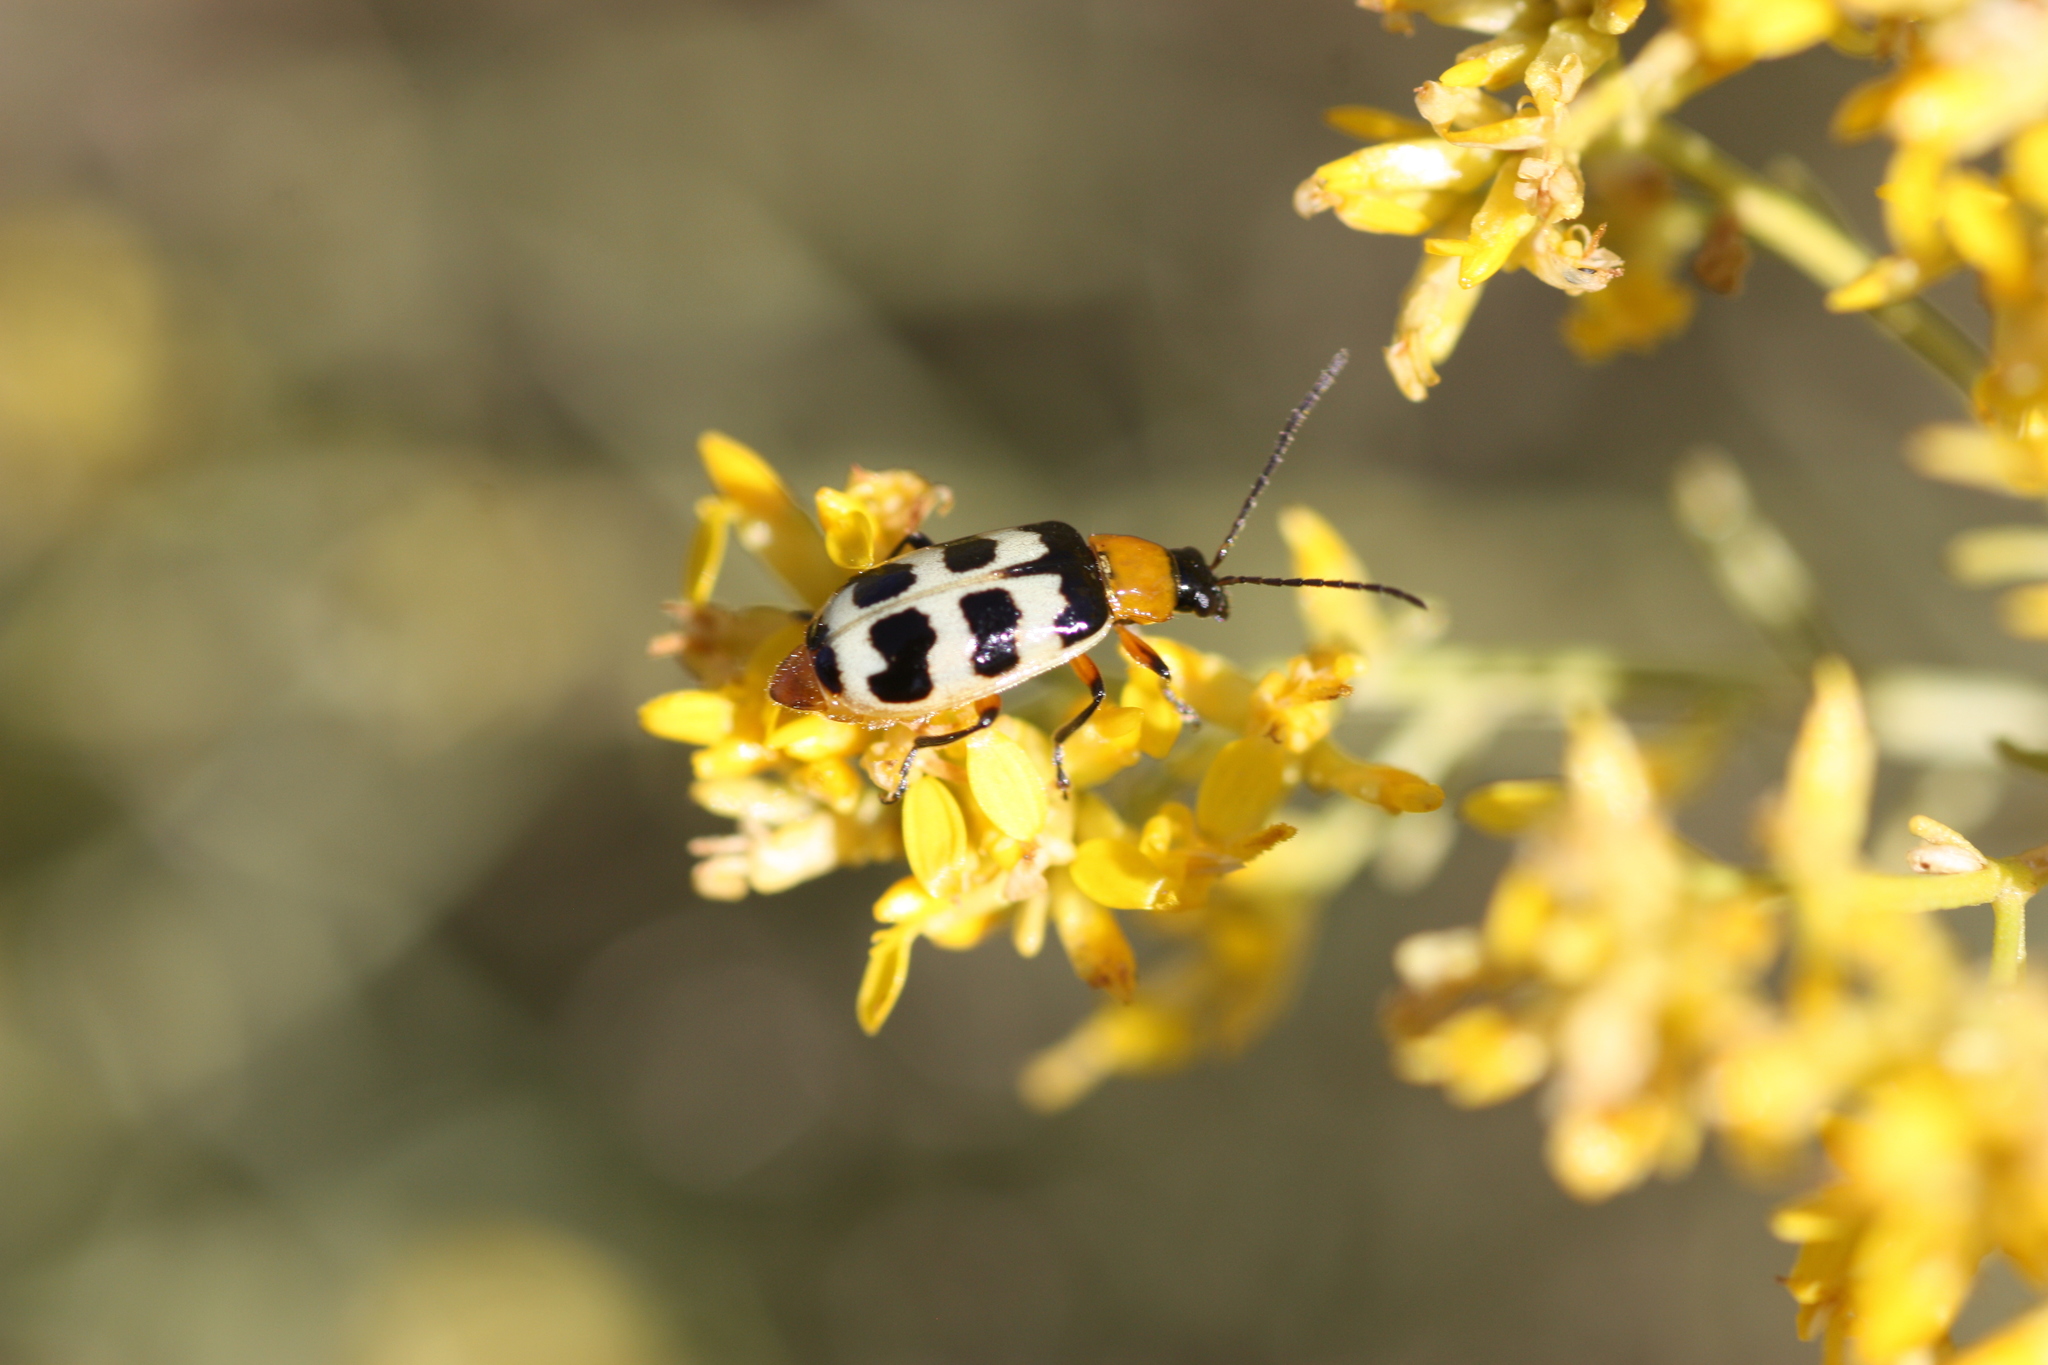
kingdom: Animalia
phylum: Arthropoda
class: Insecta
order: Coleoptera
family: Chrysomelidae
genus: Paranapiacaba
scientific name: Paranapiacaba tricincta
